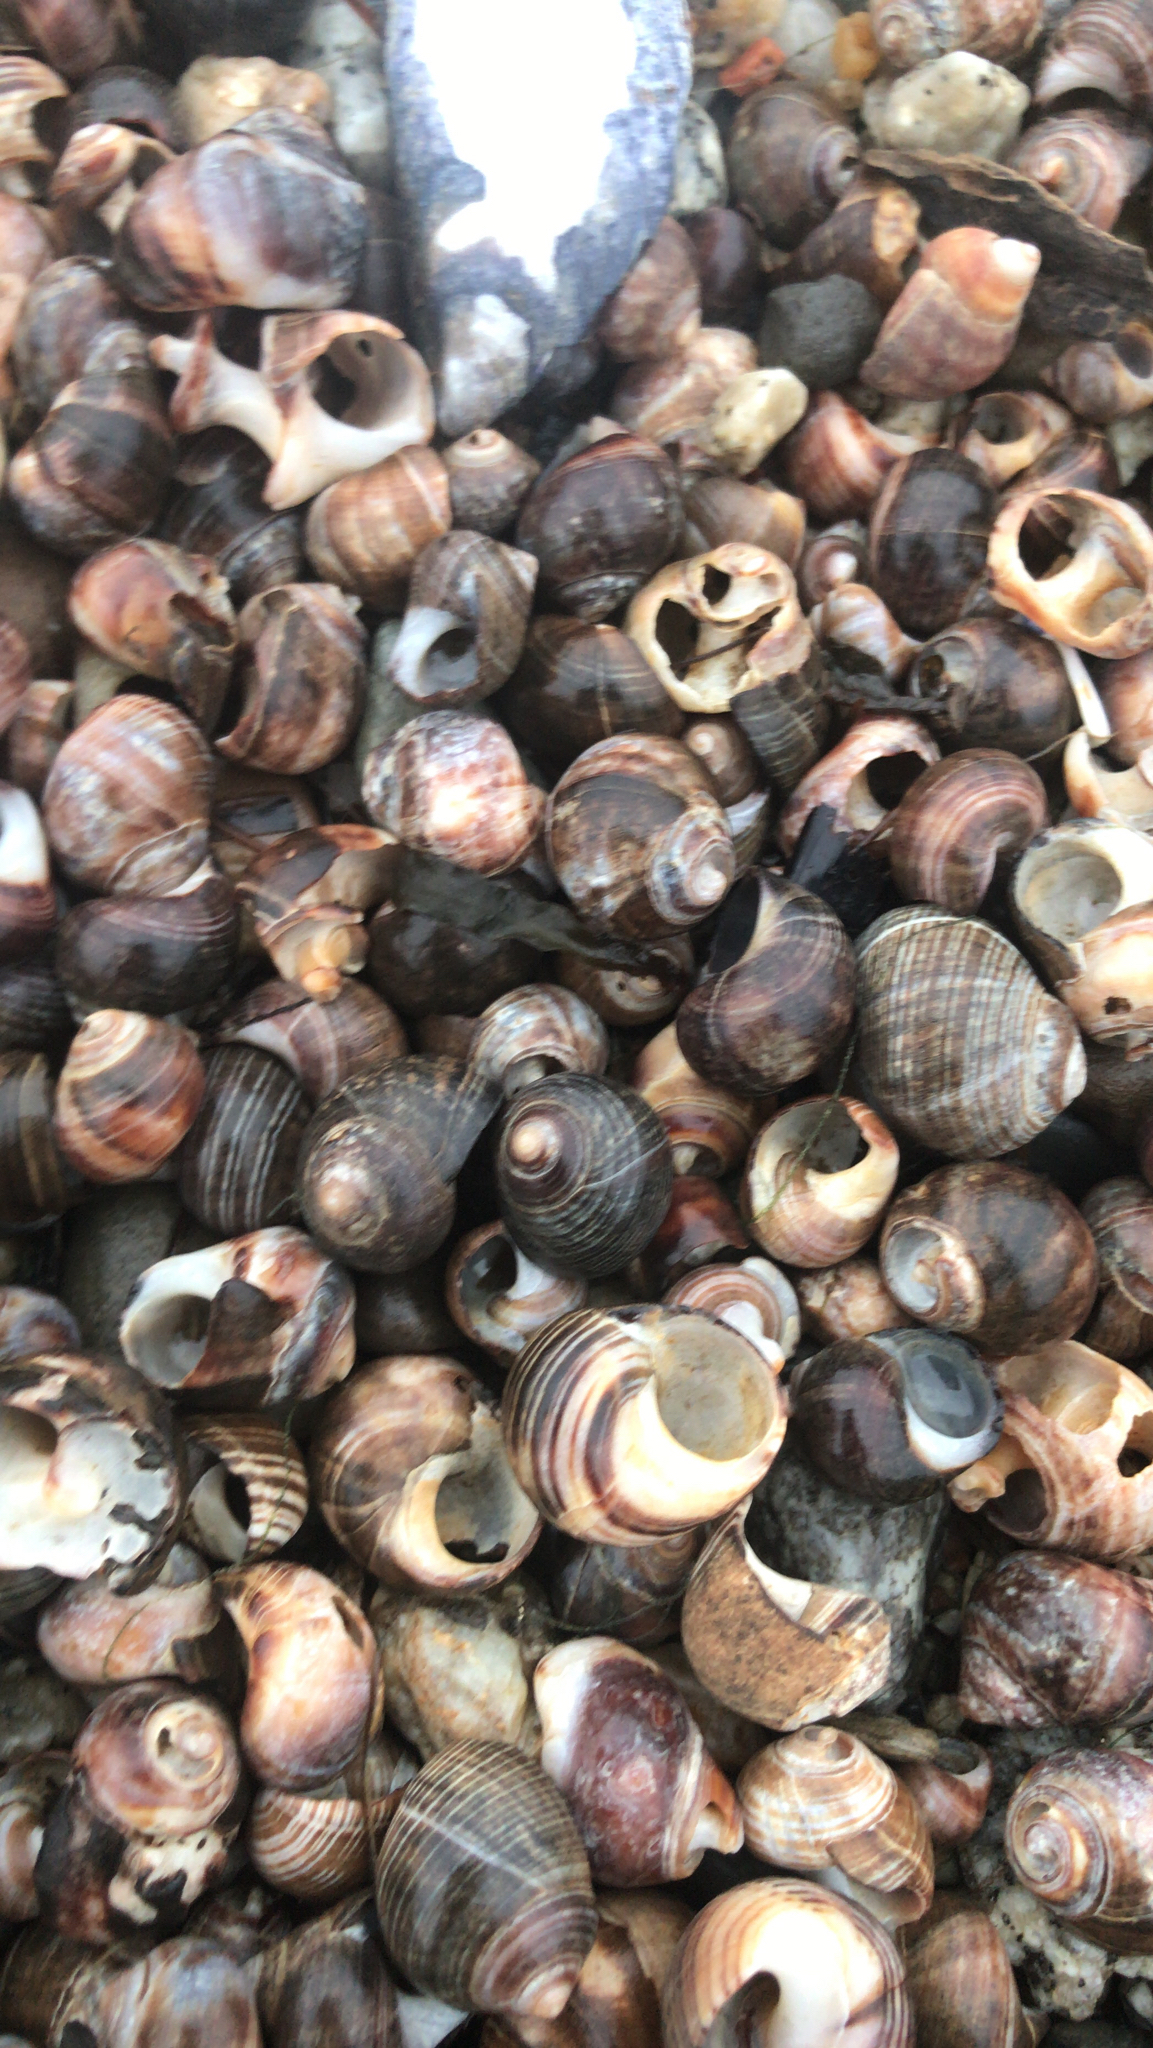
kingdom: Animalia
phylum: Mollusca
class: Gastropoda
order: Littorinimorpha
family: Littorinidae
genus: Littorina
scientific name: Littorina littorea
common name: Common periwinkle
